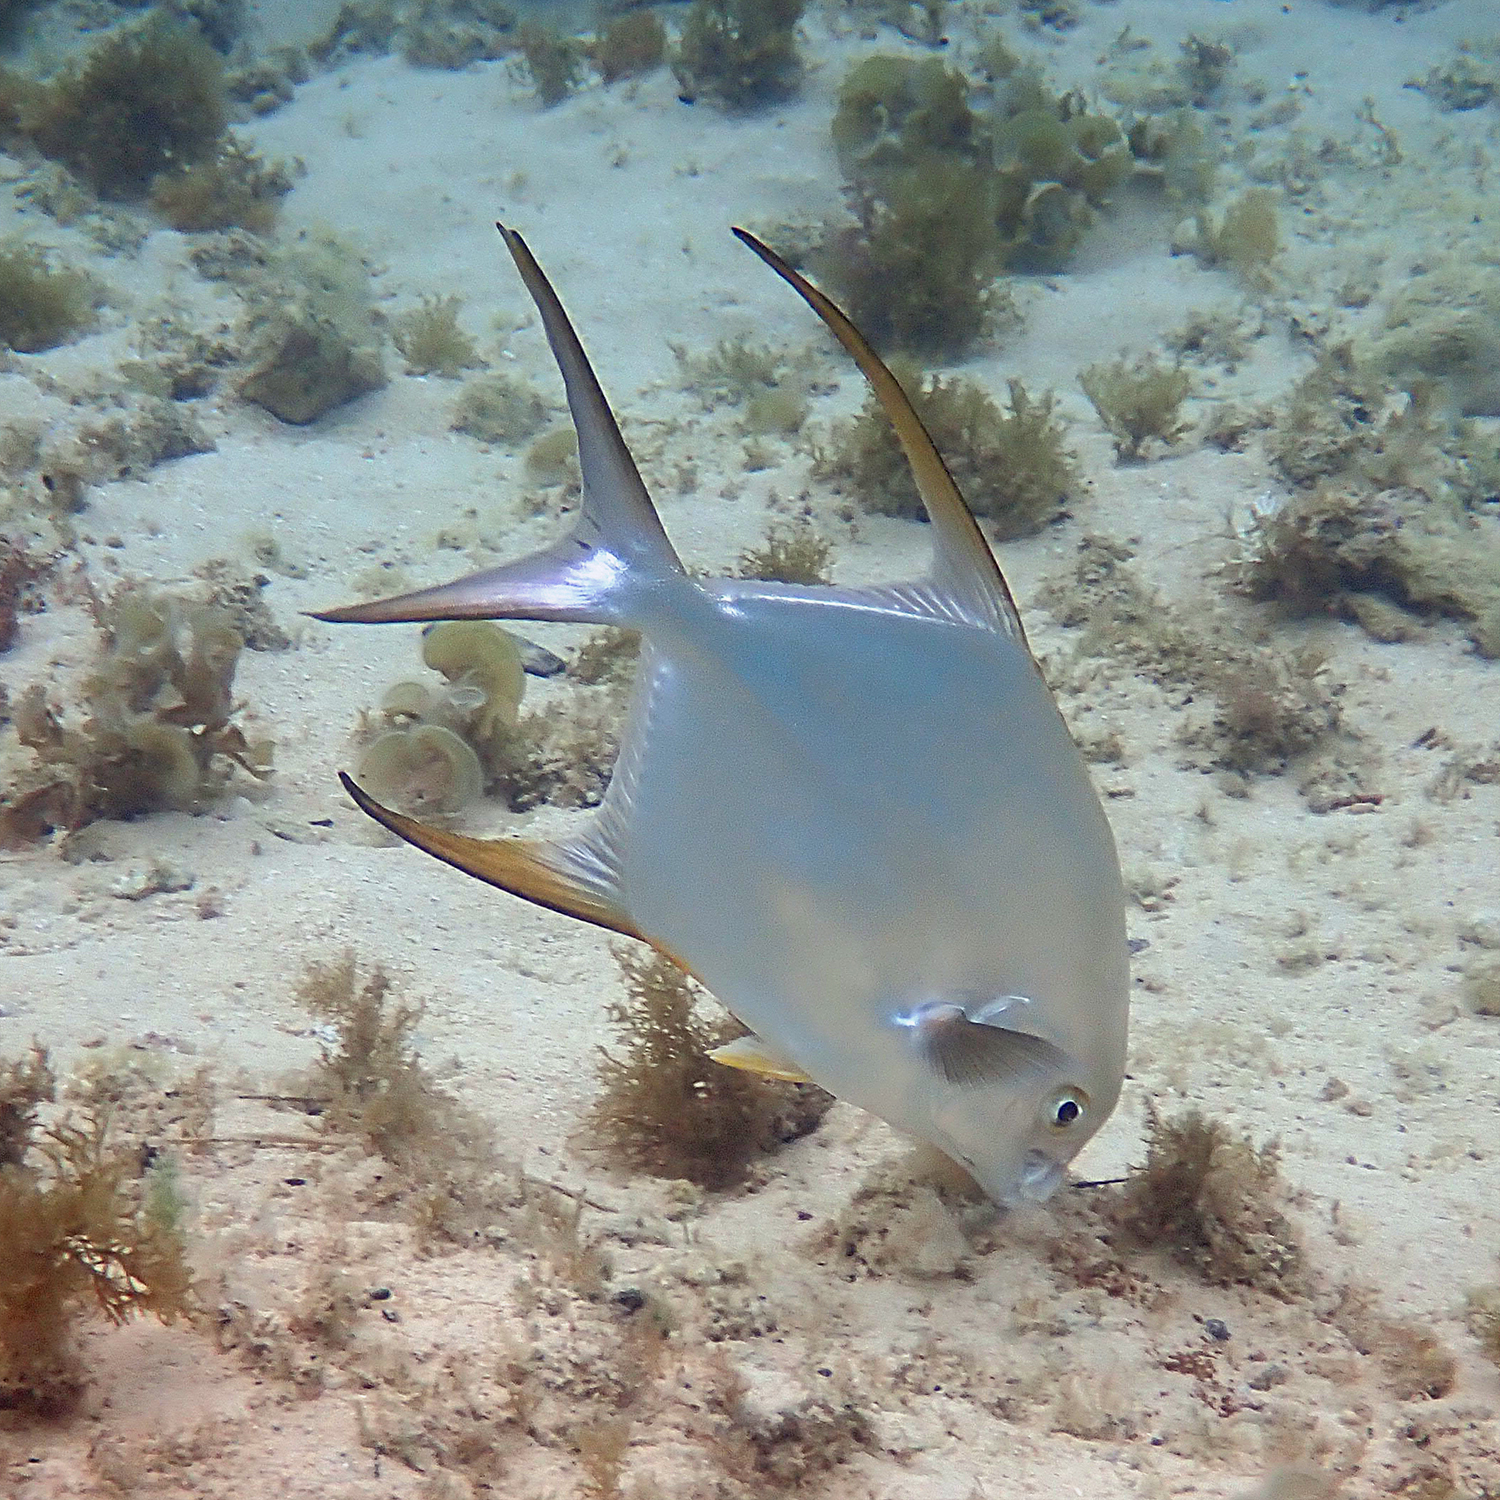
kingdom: Animalia
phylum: Chordata
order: Perciformes
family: Carangidae
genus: Trachinotus
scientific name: Trachinotus blochii
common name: Snubnose pompano
